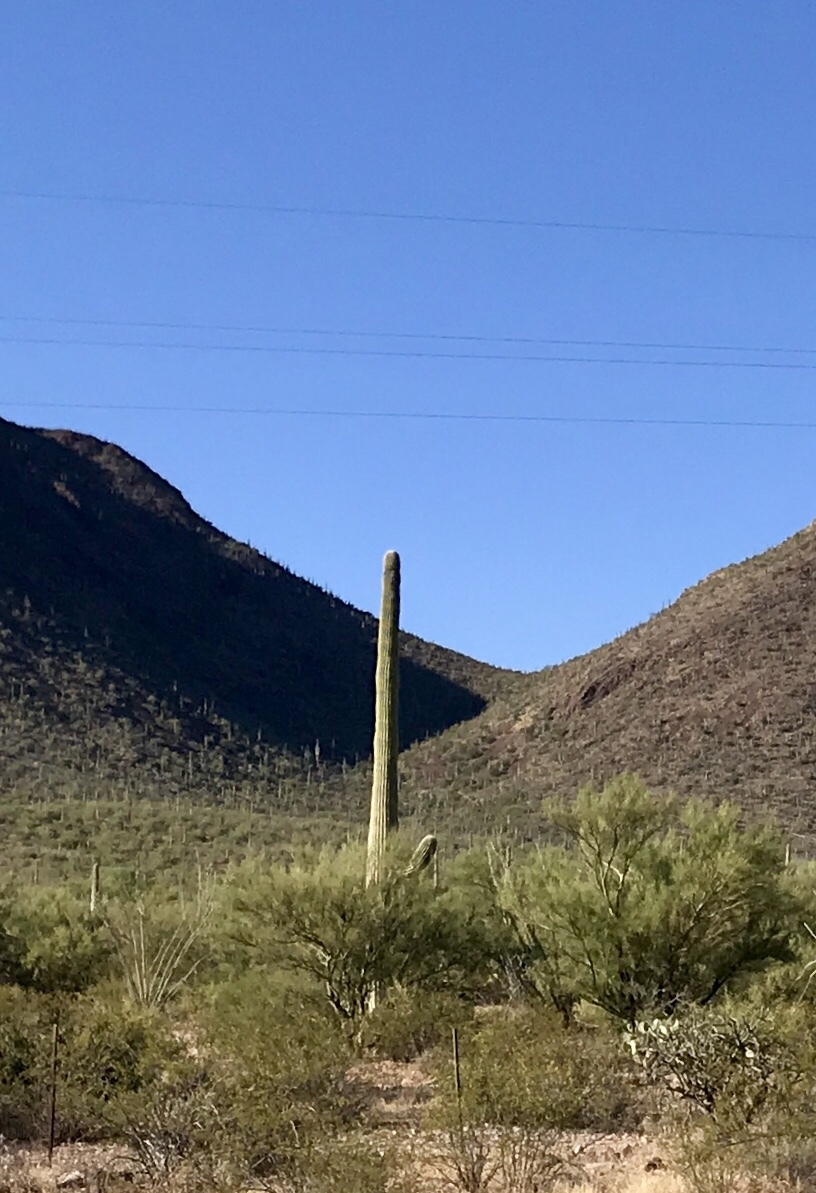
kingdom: Plantae
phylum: Tracheophyta
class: Magnoliopsida
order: Caryophyllales
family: Cactaceae
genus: Carnegiea
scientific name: Carnegiea gigantea
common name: Saguaro
